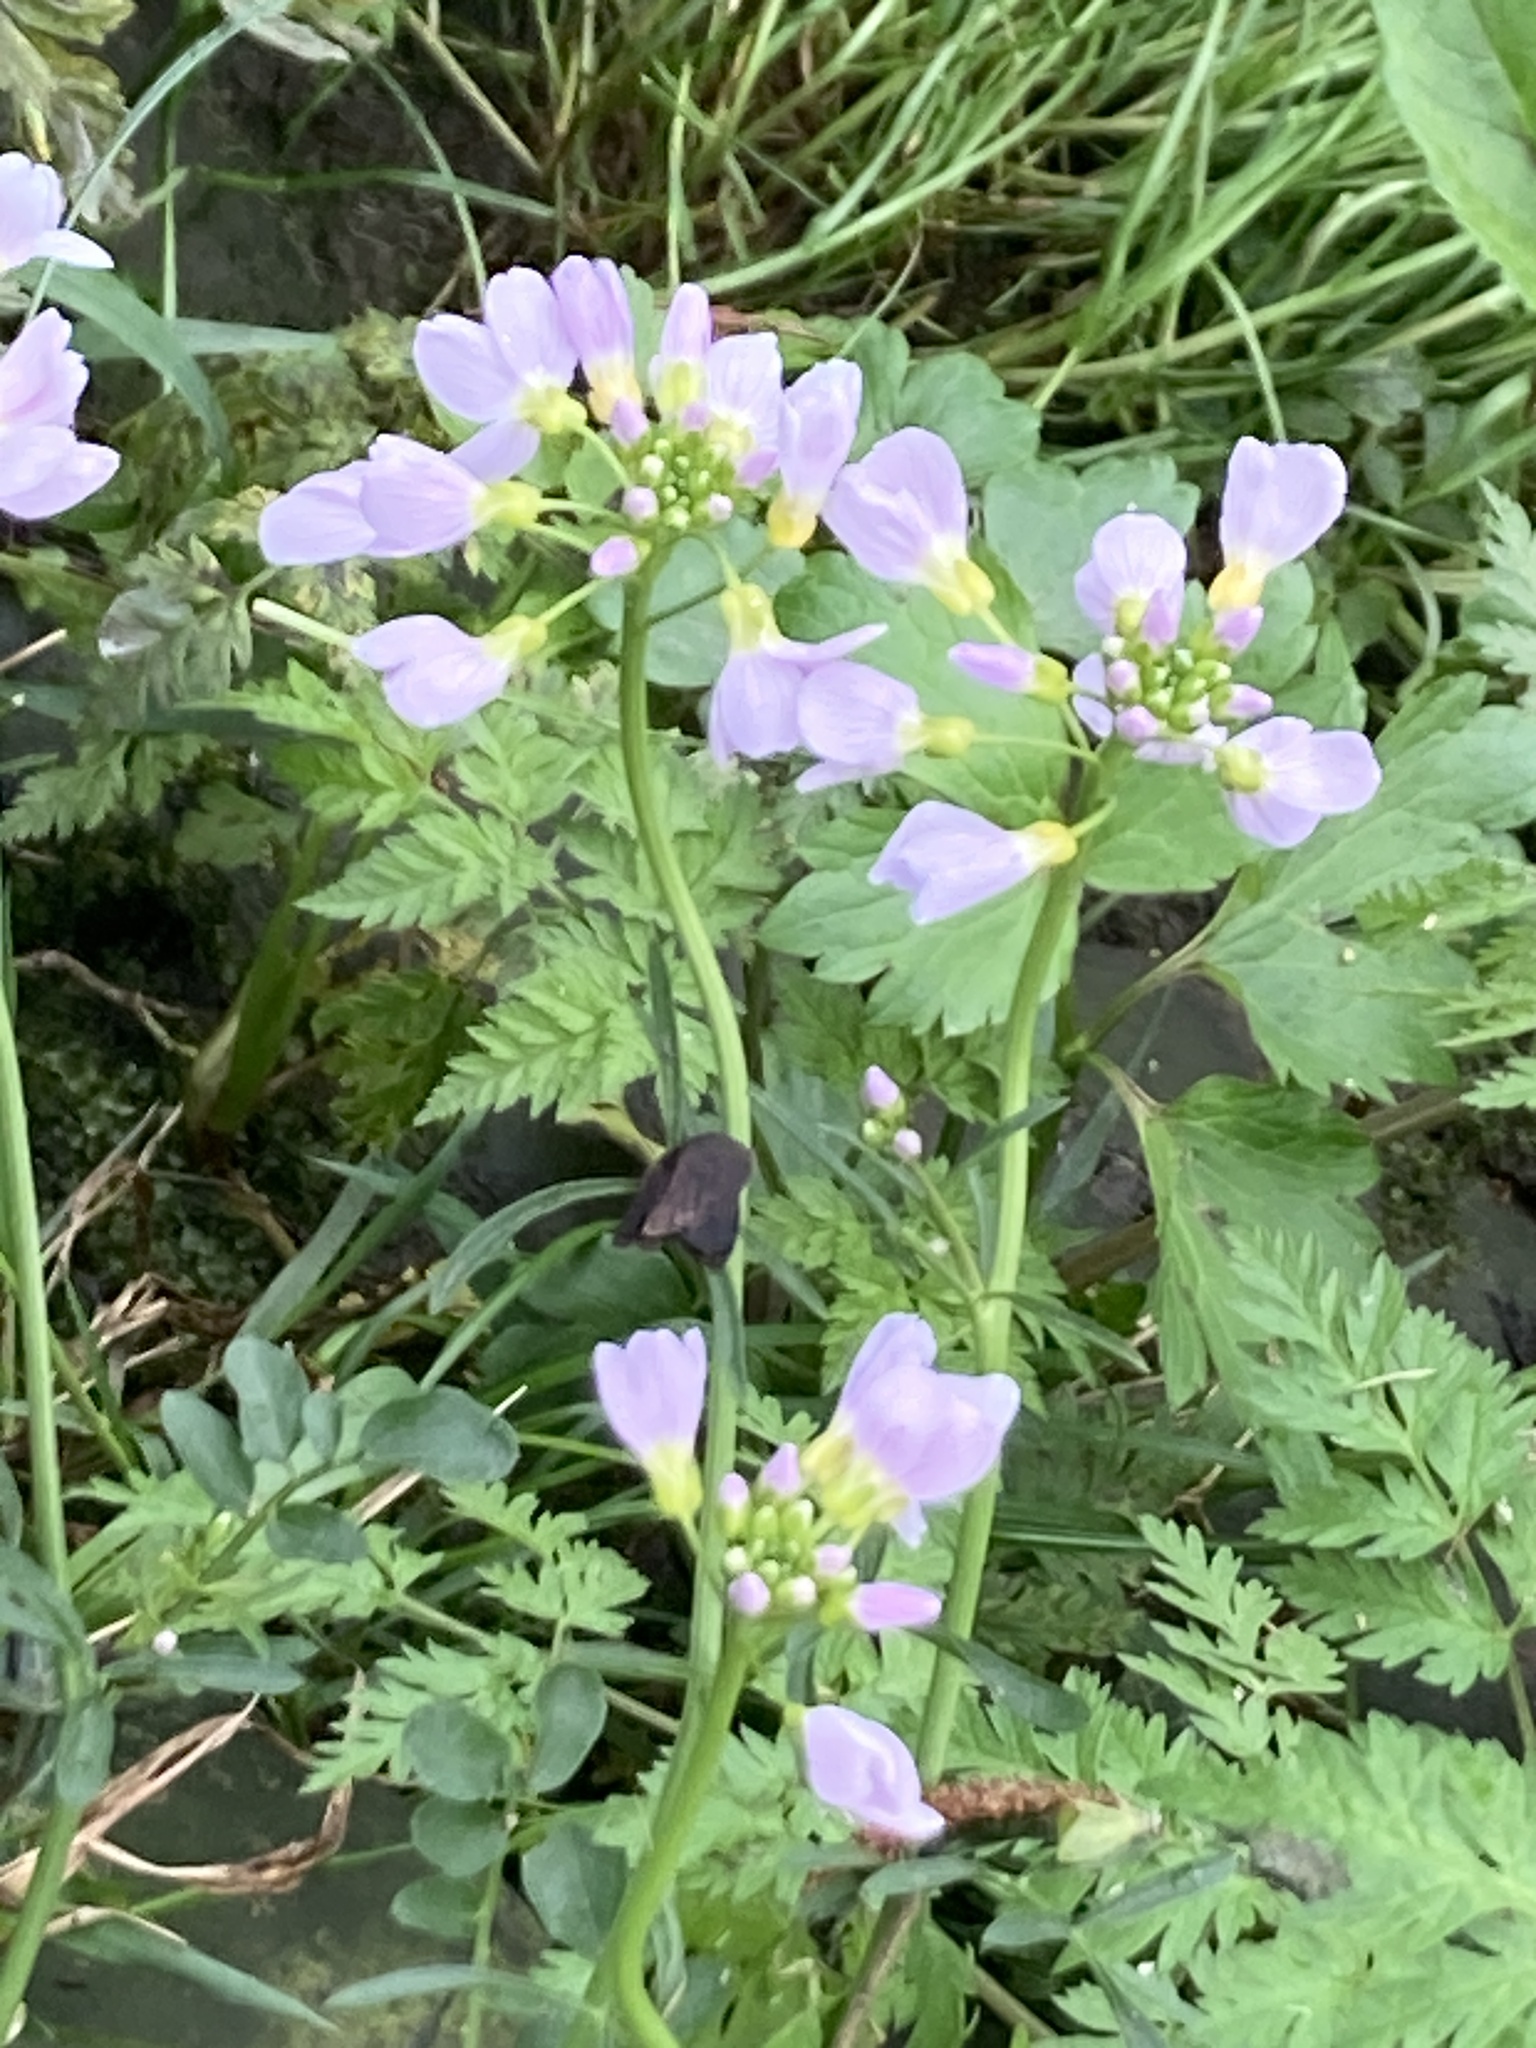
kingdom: Plantae
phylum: Tracheophyta
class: Magnoliopsida
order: Brassicales
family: Brassicaceae
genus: Cardamine
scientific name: Cardamine pratensis
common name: Cuckoo flower
